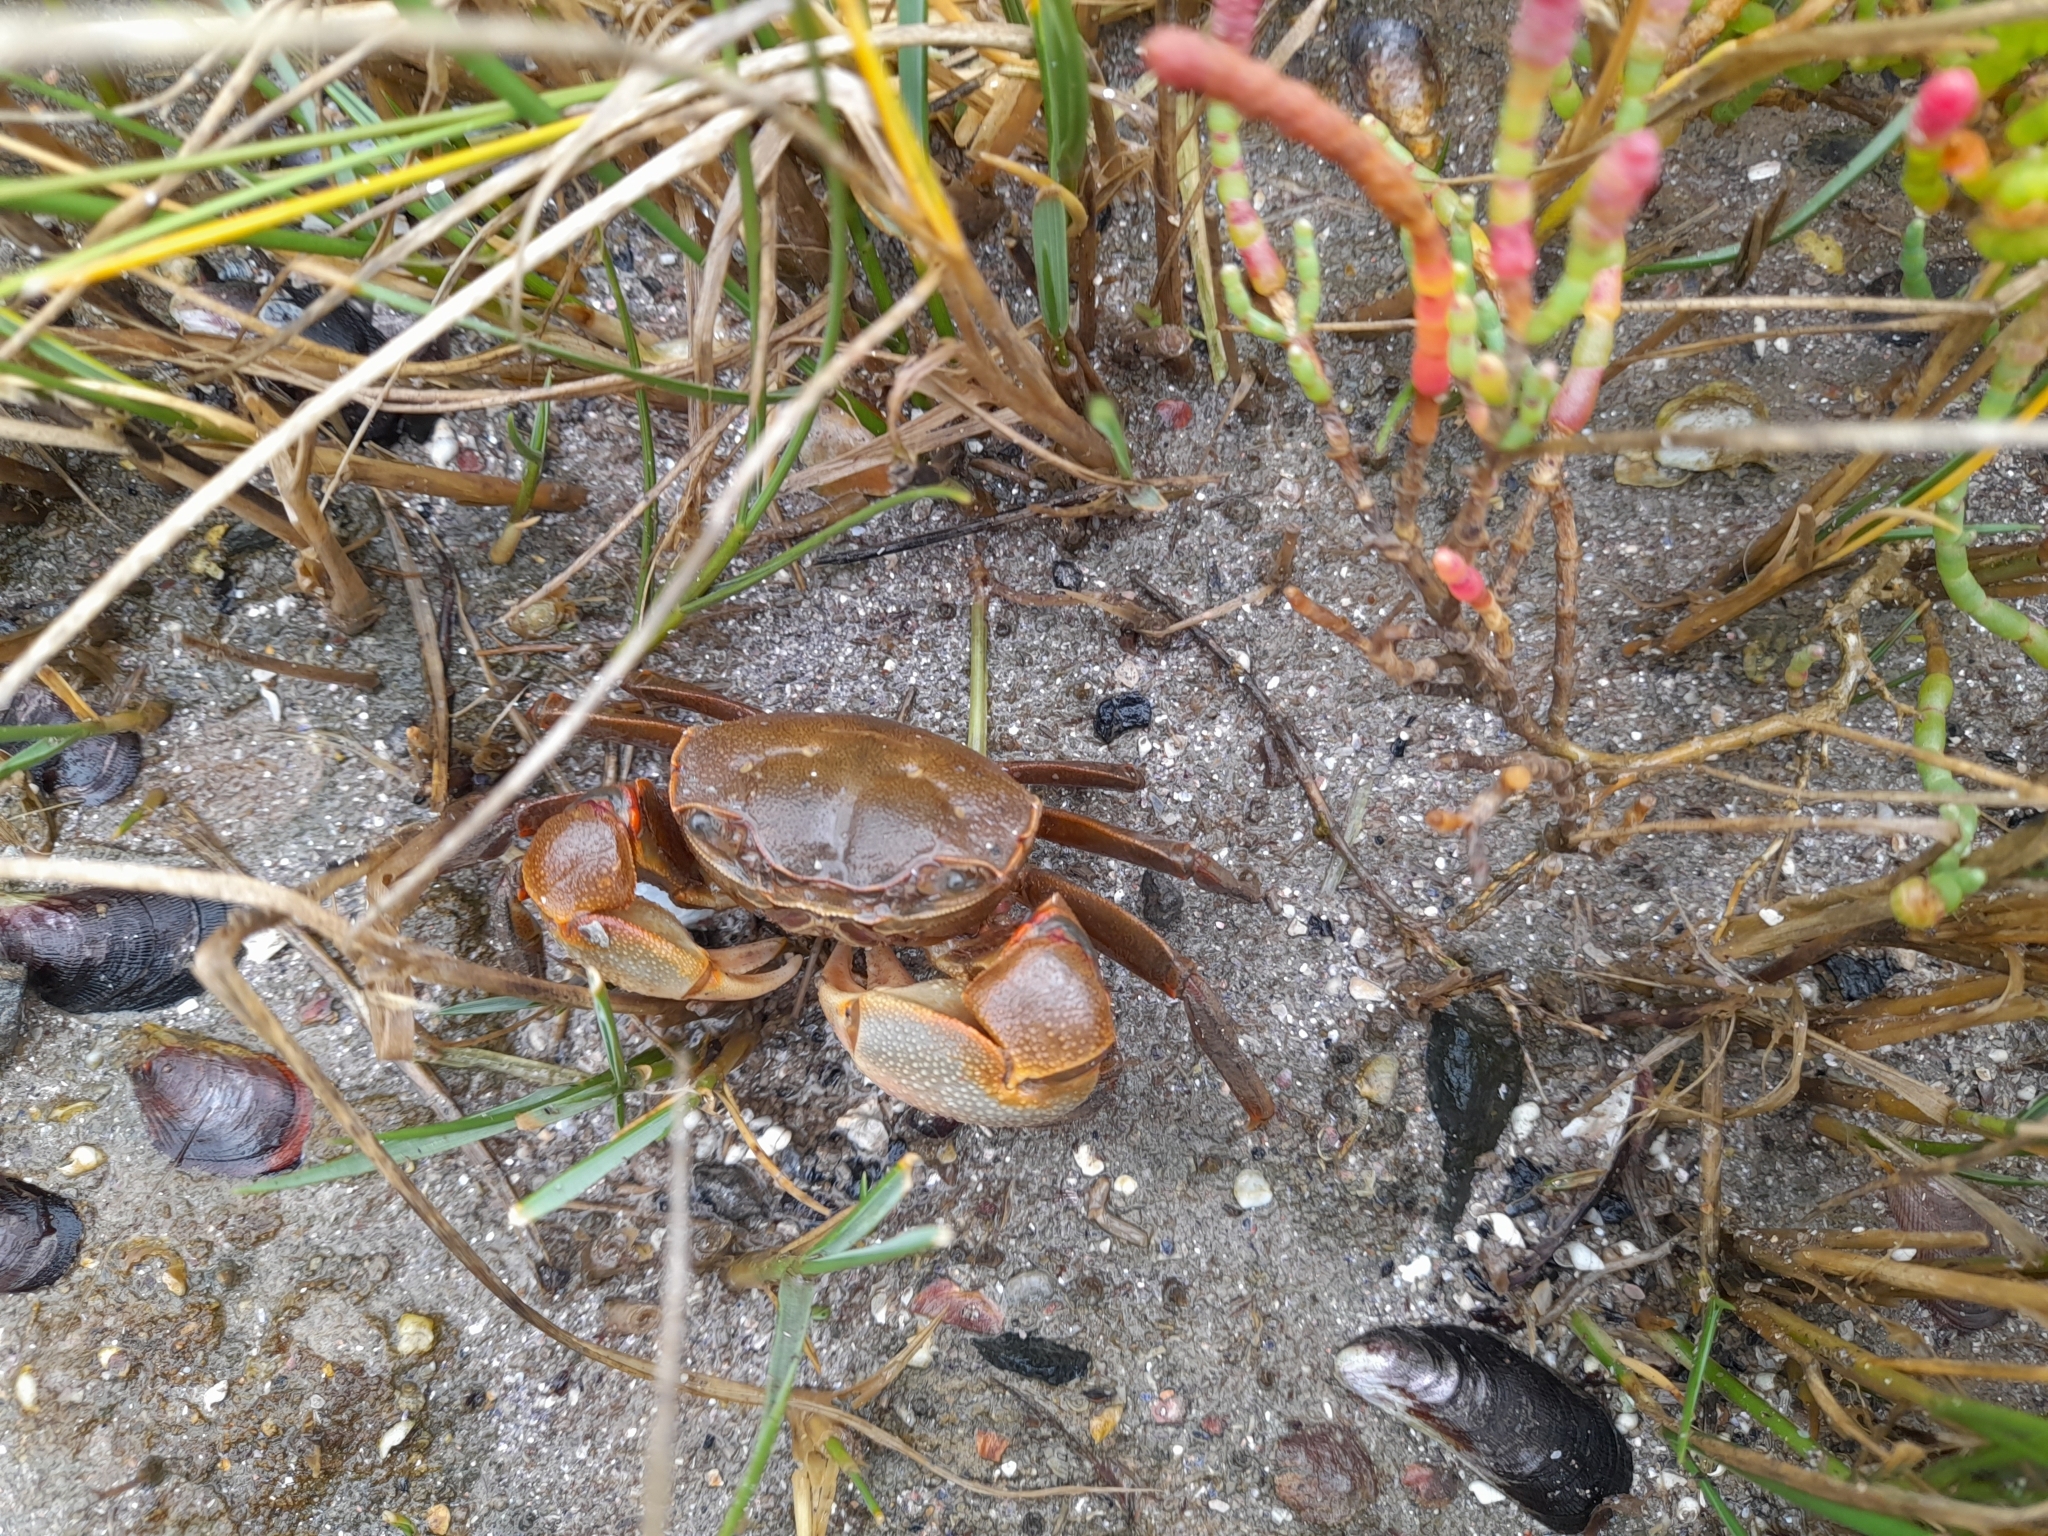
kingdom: Animalia
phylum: Arthropoda
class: Malacostraca
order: Decapoda
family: Varunidae
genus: Neohelice
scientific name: Neohelice granulata
